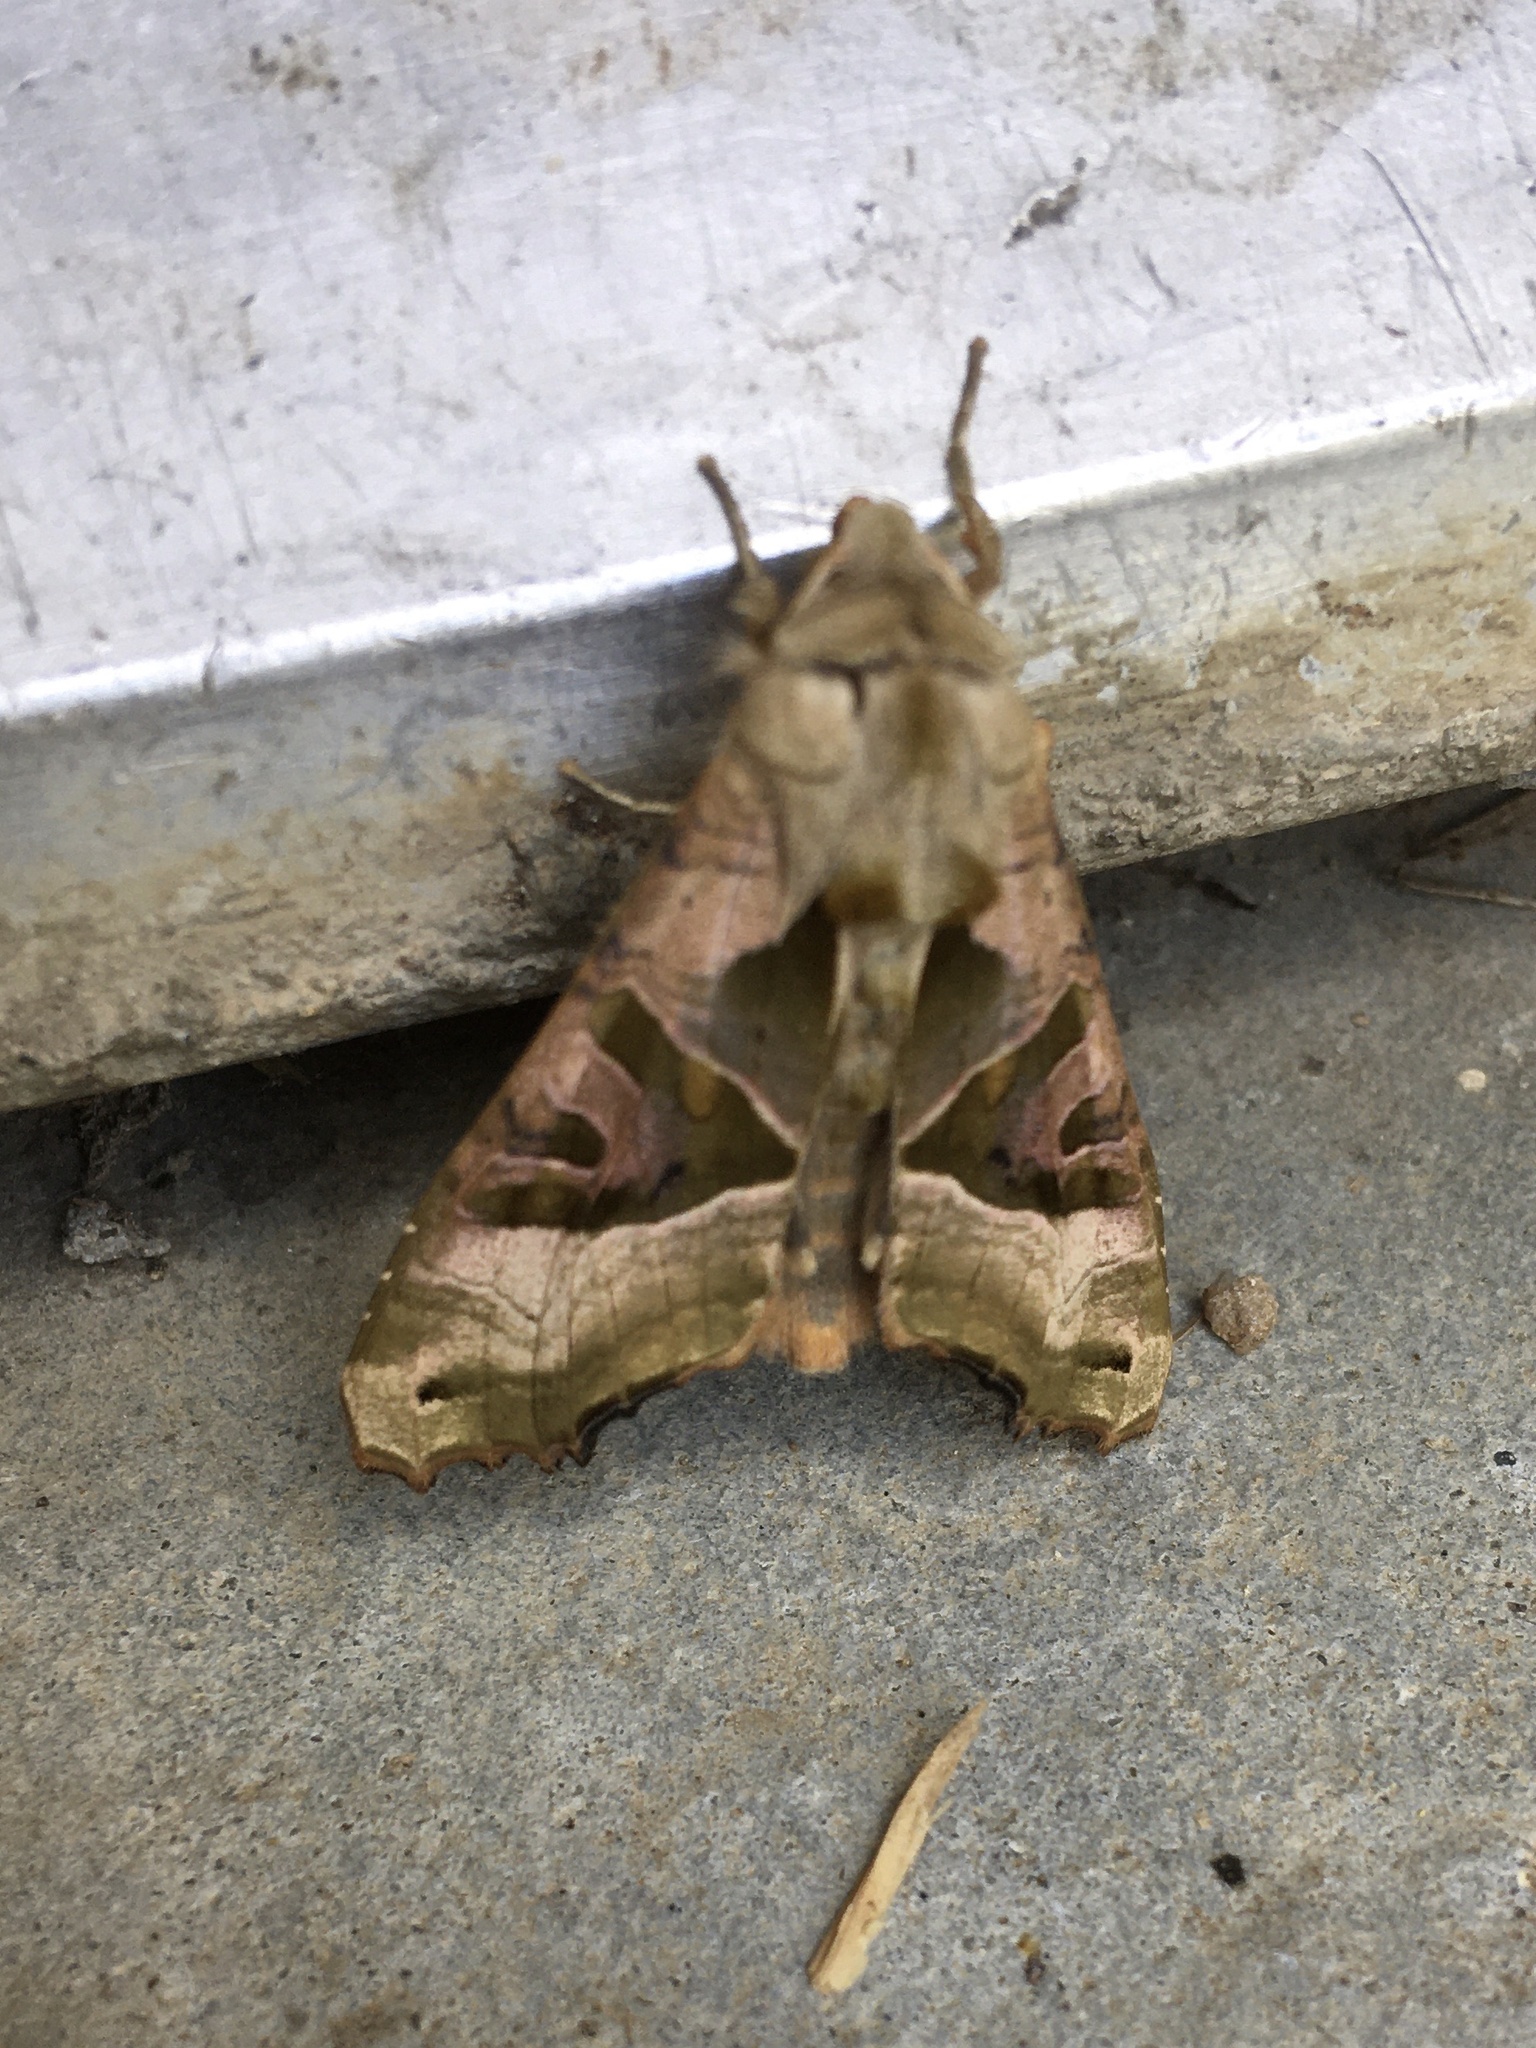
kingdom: Animalia
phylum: Arthropoda
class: Insecta
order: Lepidoptera
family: Noctuidae
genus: Phlogophora
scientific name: Phlogophora meticulosa
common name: Angle shades
